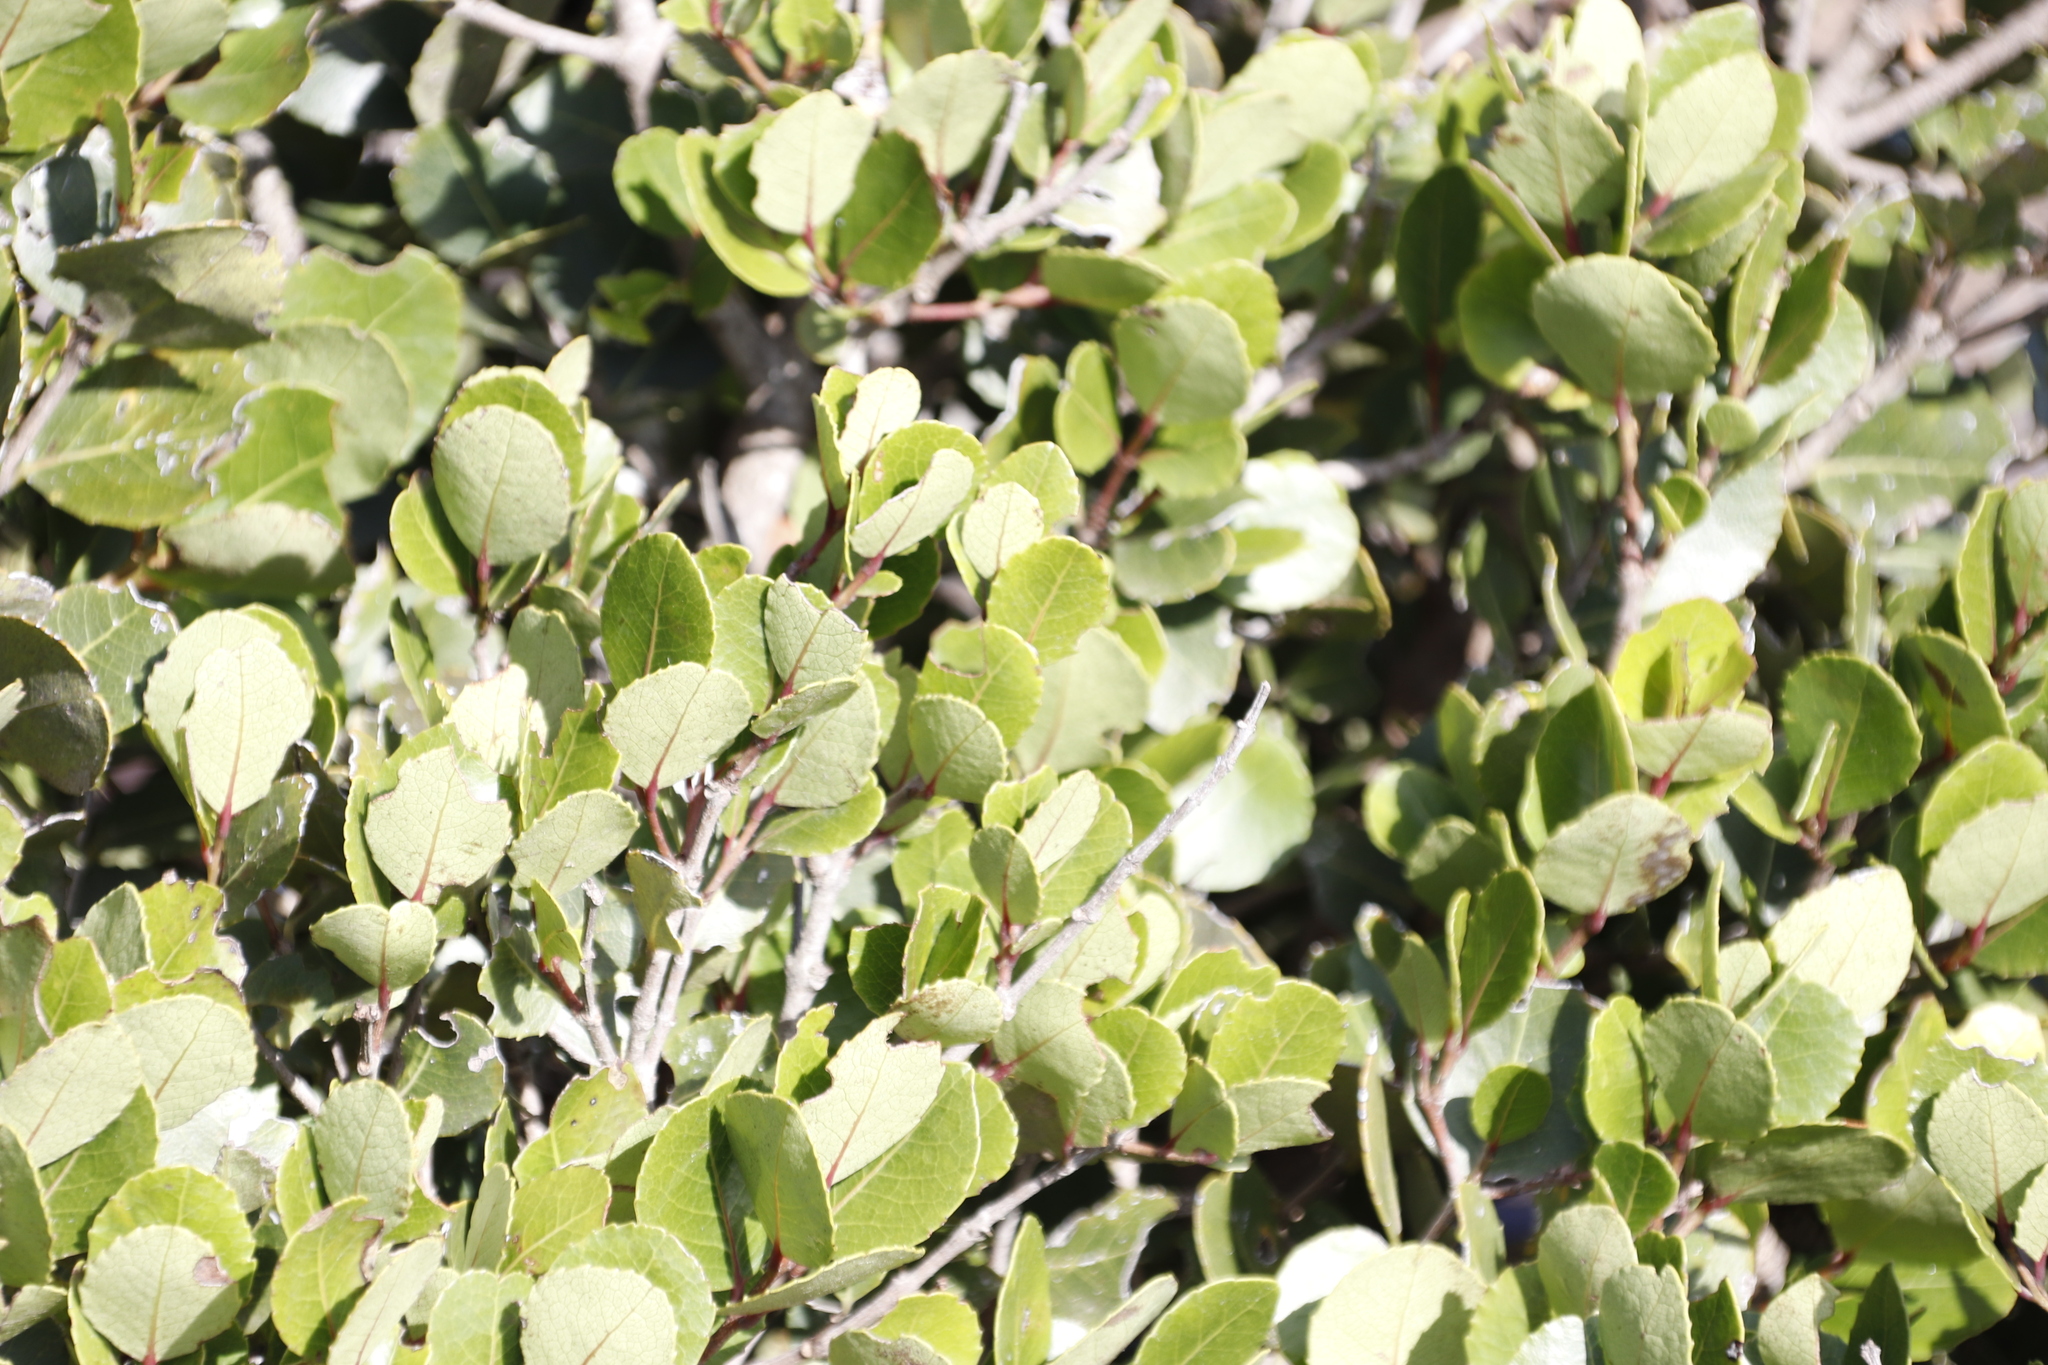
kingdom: Plantae
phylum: Tracheophyta
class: Magnoliopsida
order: Celastrales
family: Celastraceae
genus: Cassine
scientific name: Cassine peragua
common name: Cape saffron
